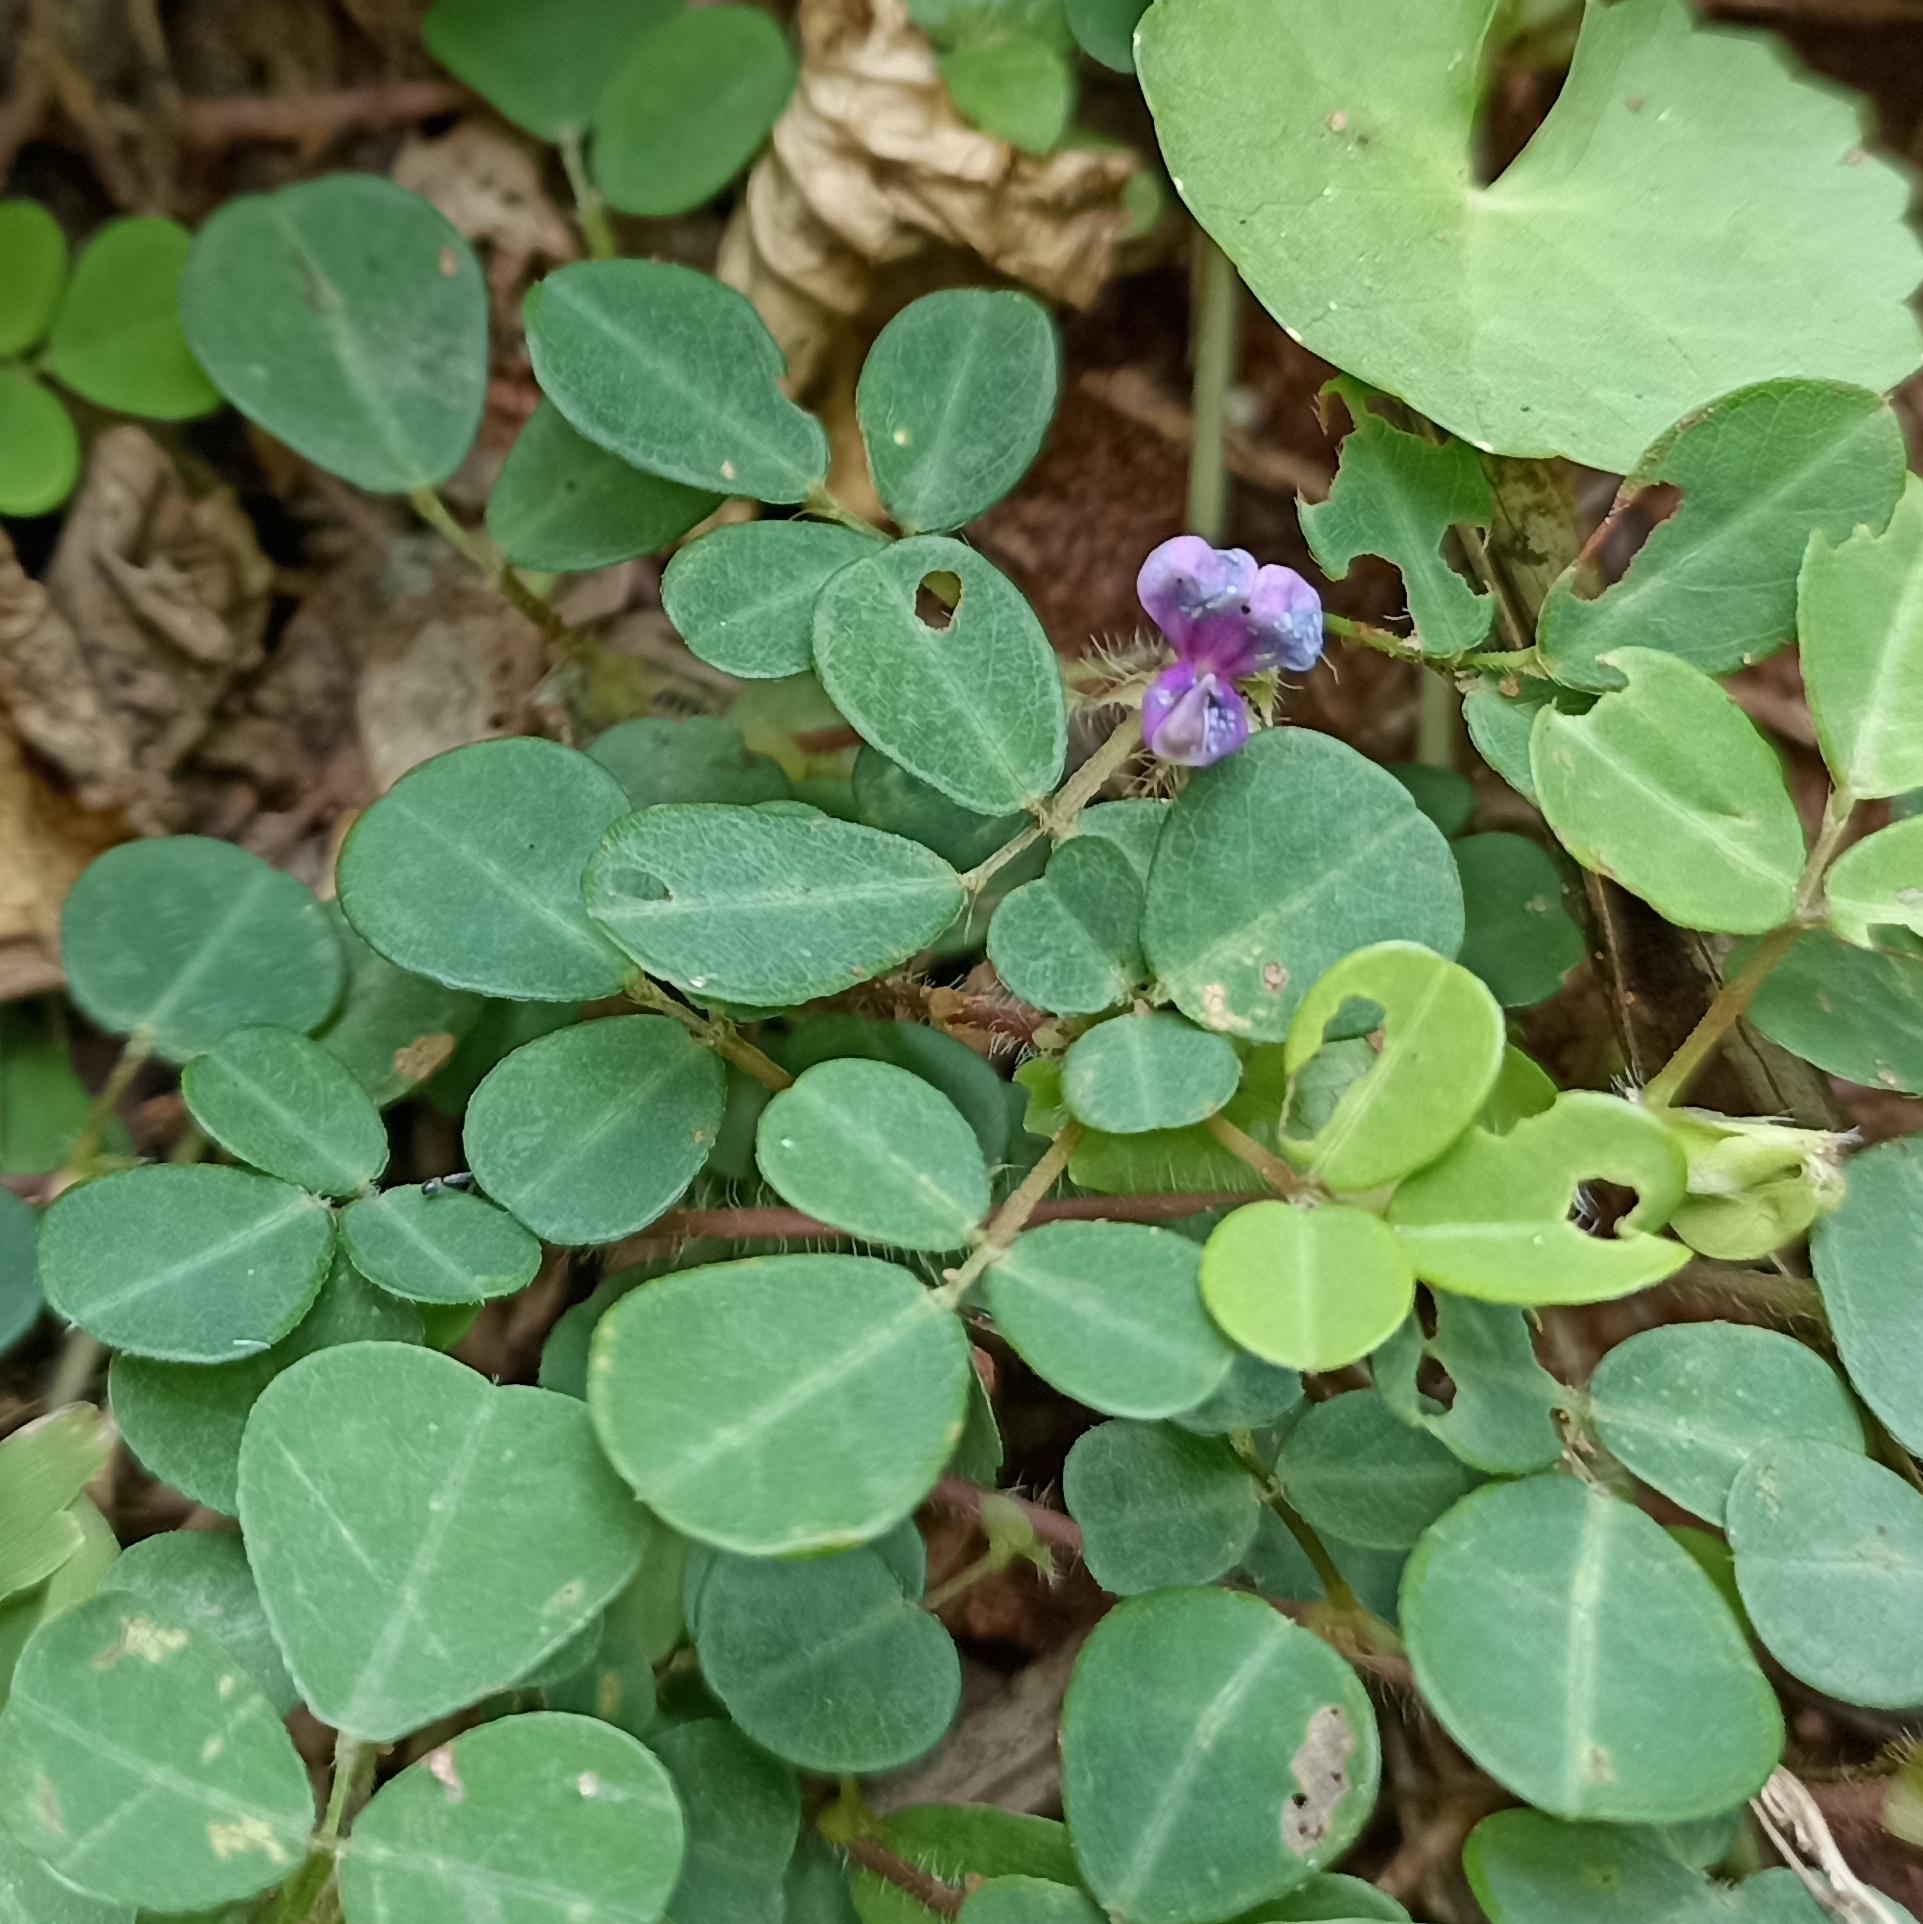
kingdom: Plantae
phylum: Tracheophyta
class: Magnoliopsida
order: Fabales
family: Fabaceae
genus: Grona
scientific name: Grona triflora
